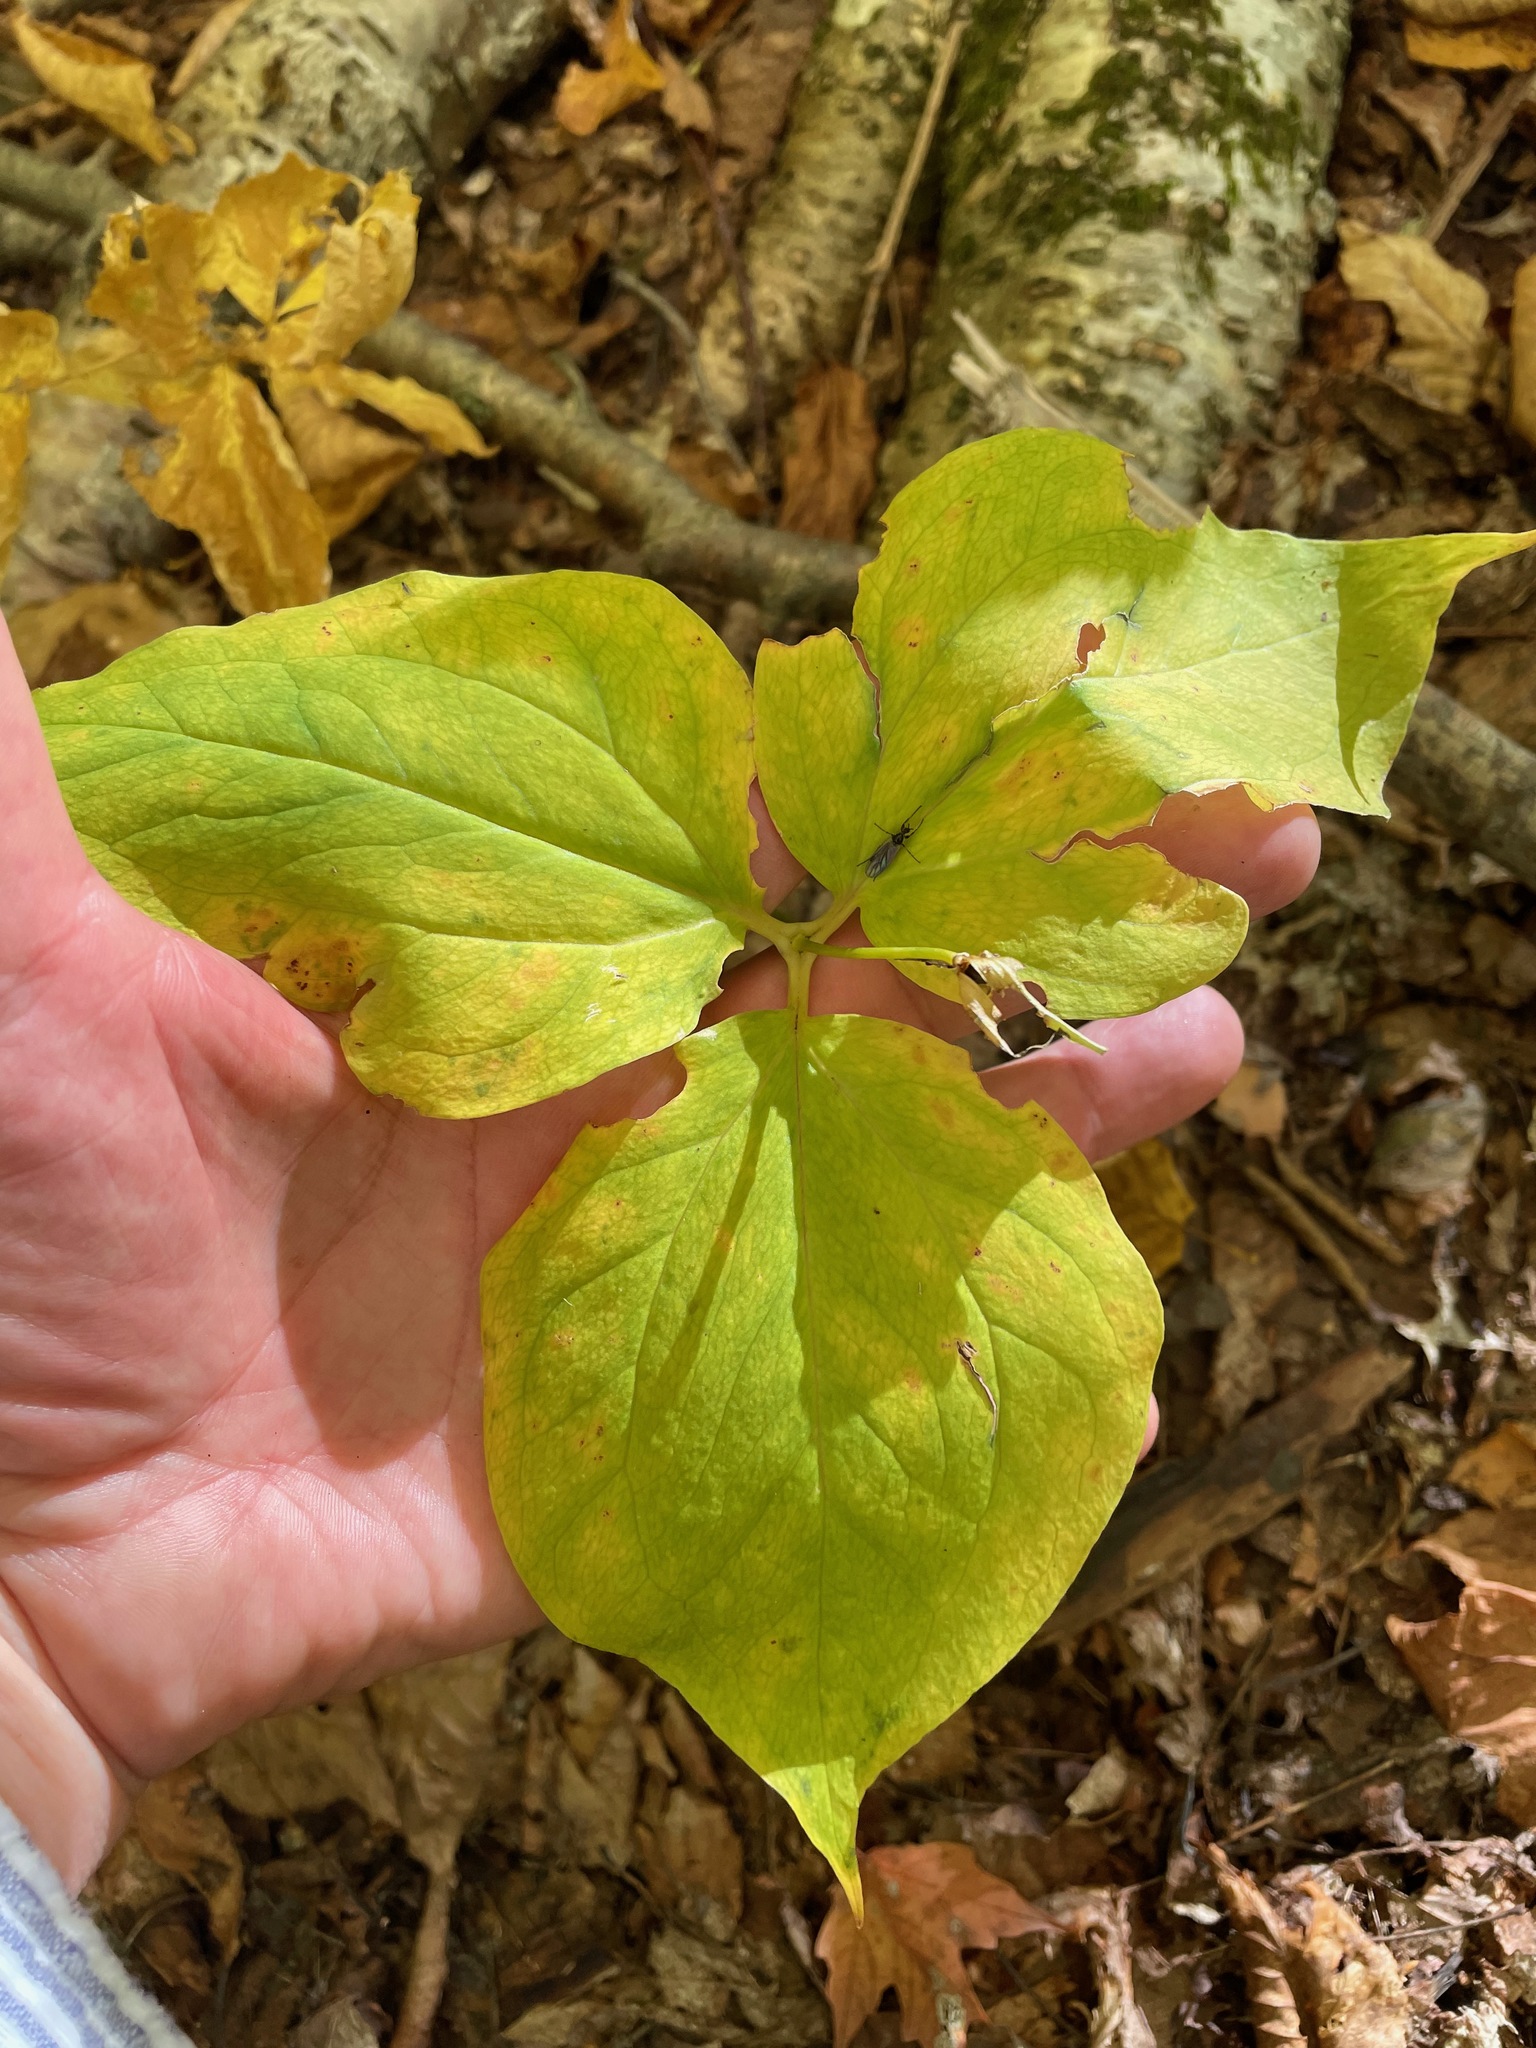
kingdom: Plantae
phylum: Tracheophyta
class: Liliopsida
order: Liliales
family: Melanthiaceae
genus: Trillium
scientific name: Trillium undulatum
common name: Paint trillium
